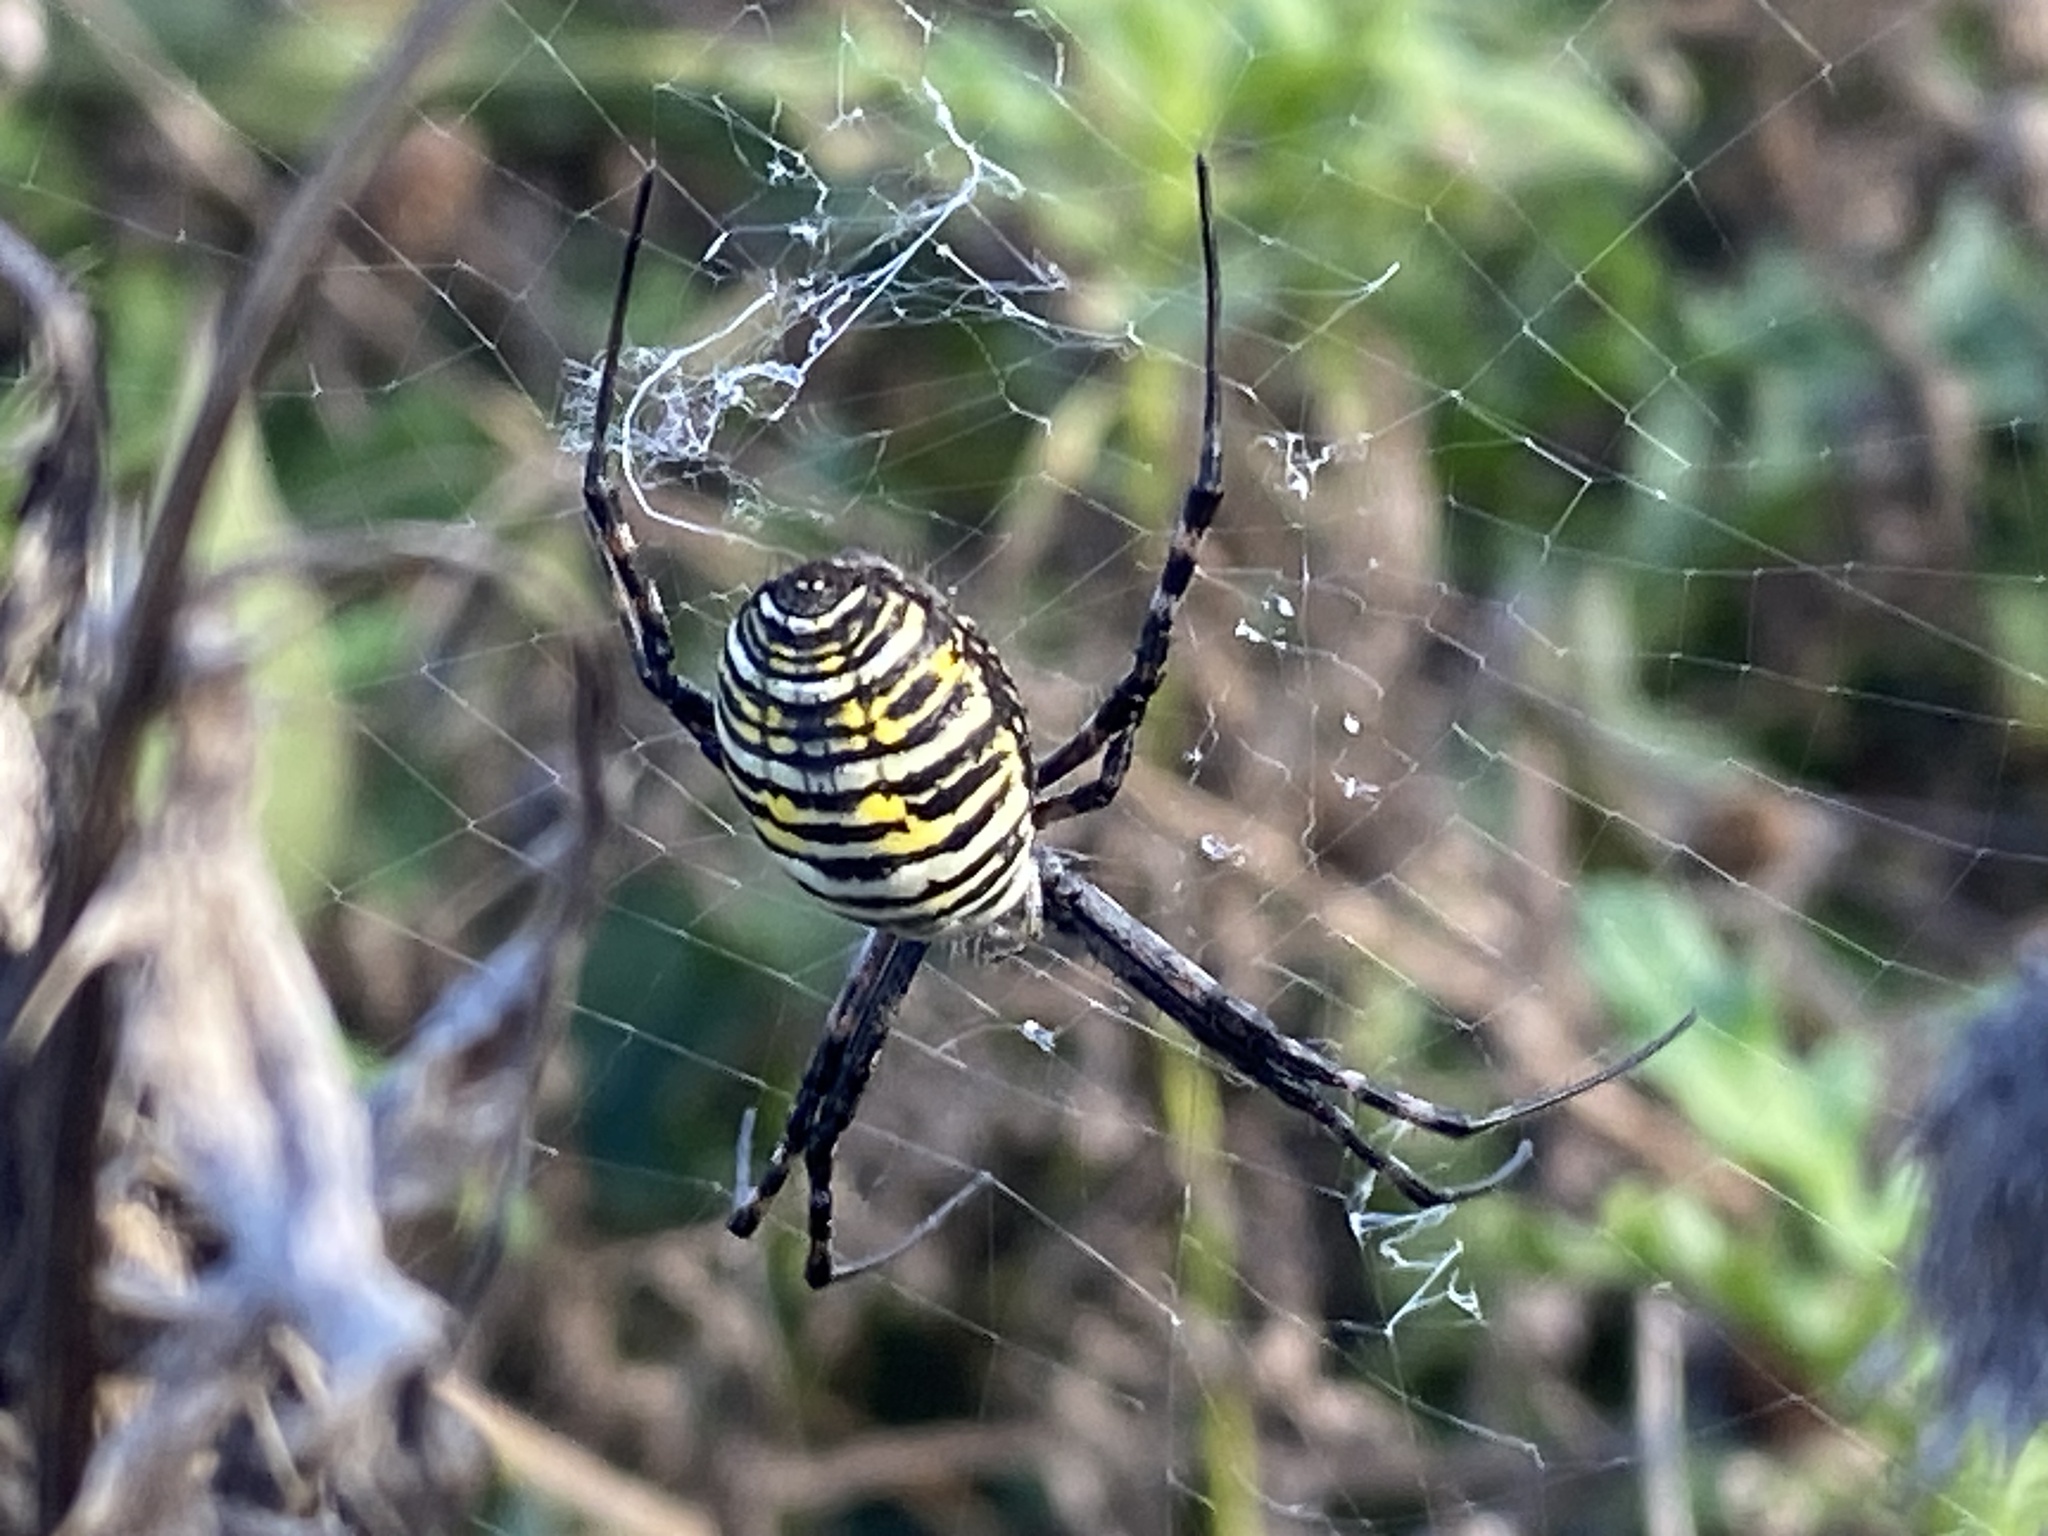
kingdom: Animalia
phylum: Arthropoda
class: Arachnida
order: Araneae
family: Araneidae
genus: Argiope
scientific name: Argiope trifasciata
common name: Banded garden spider
